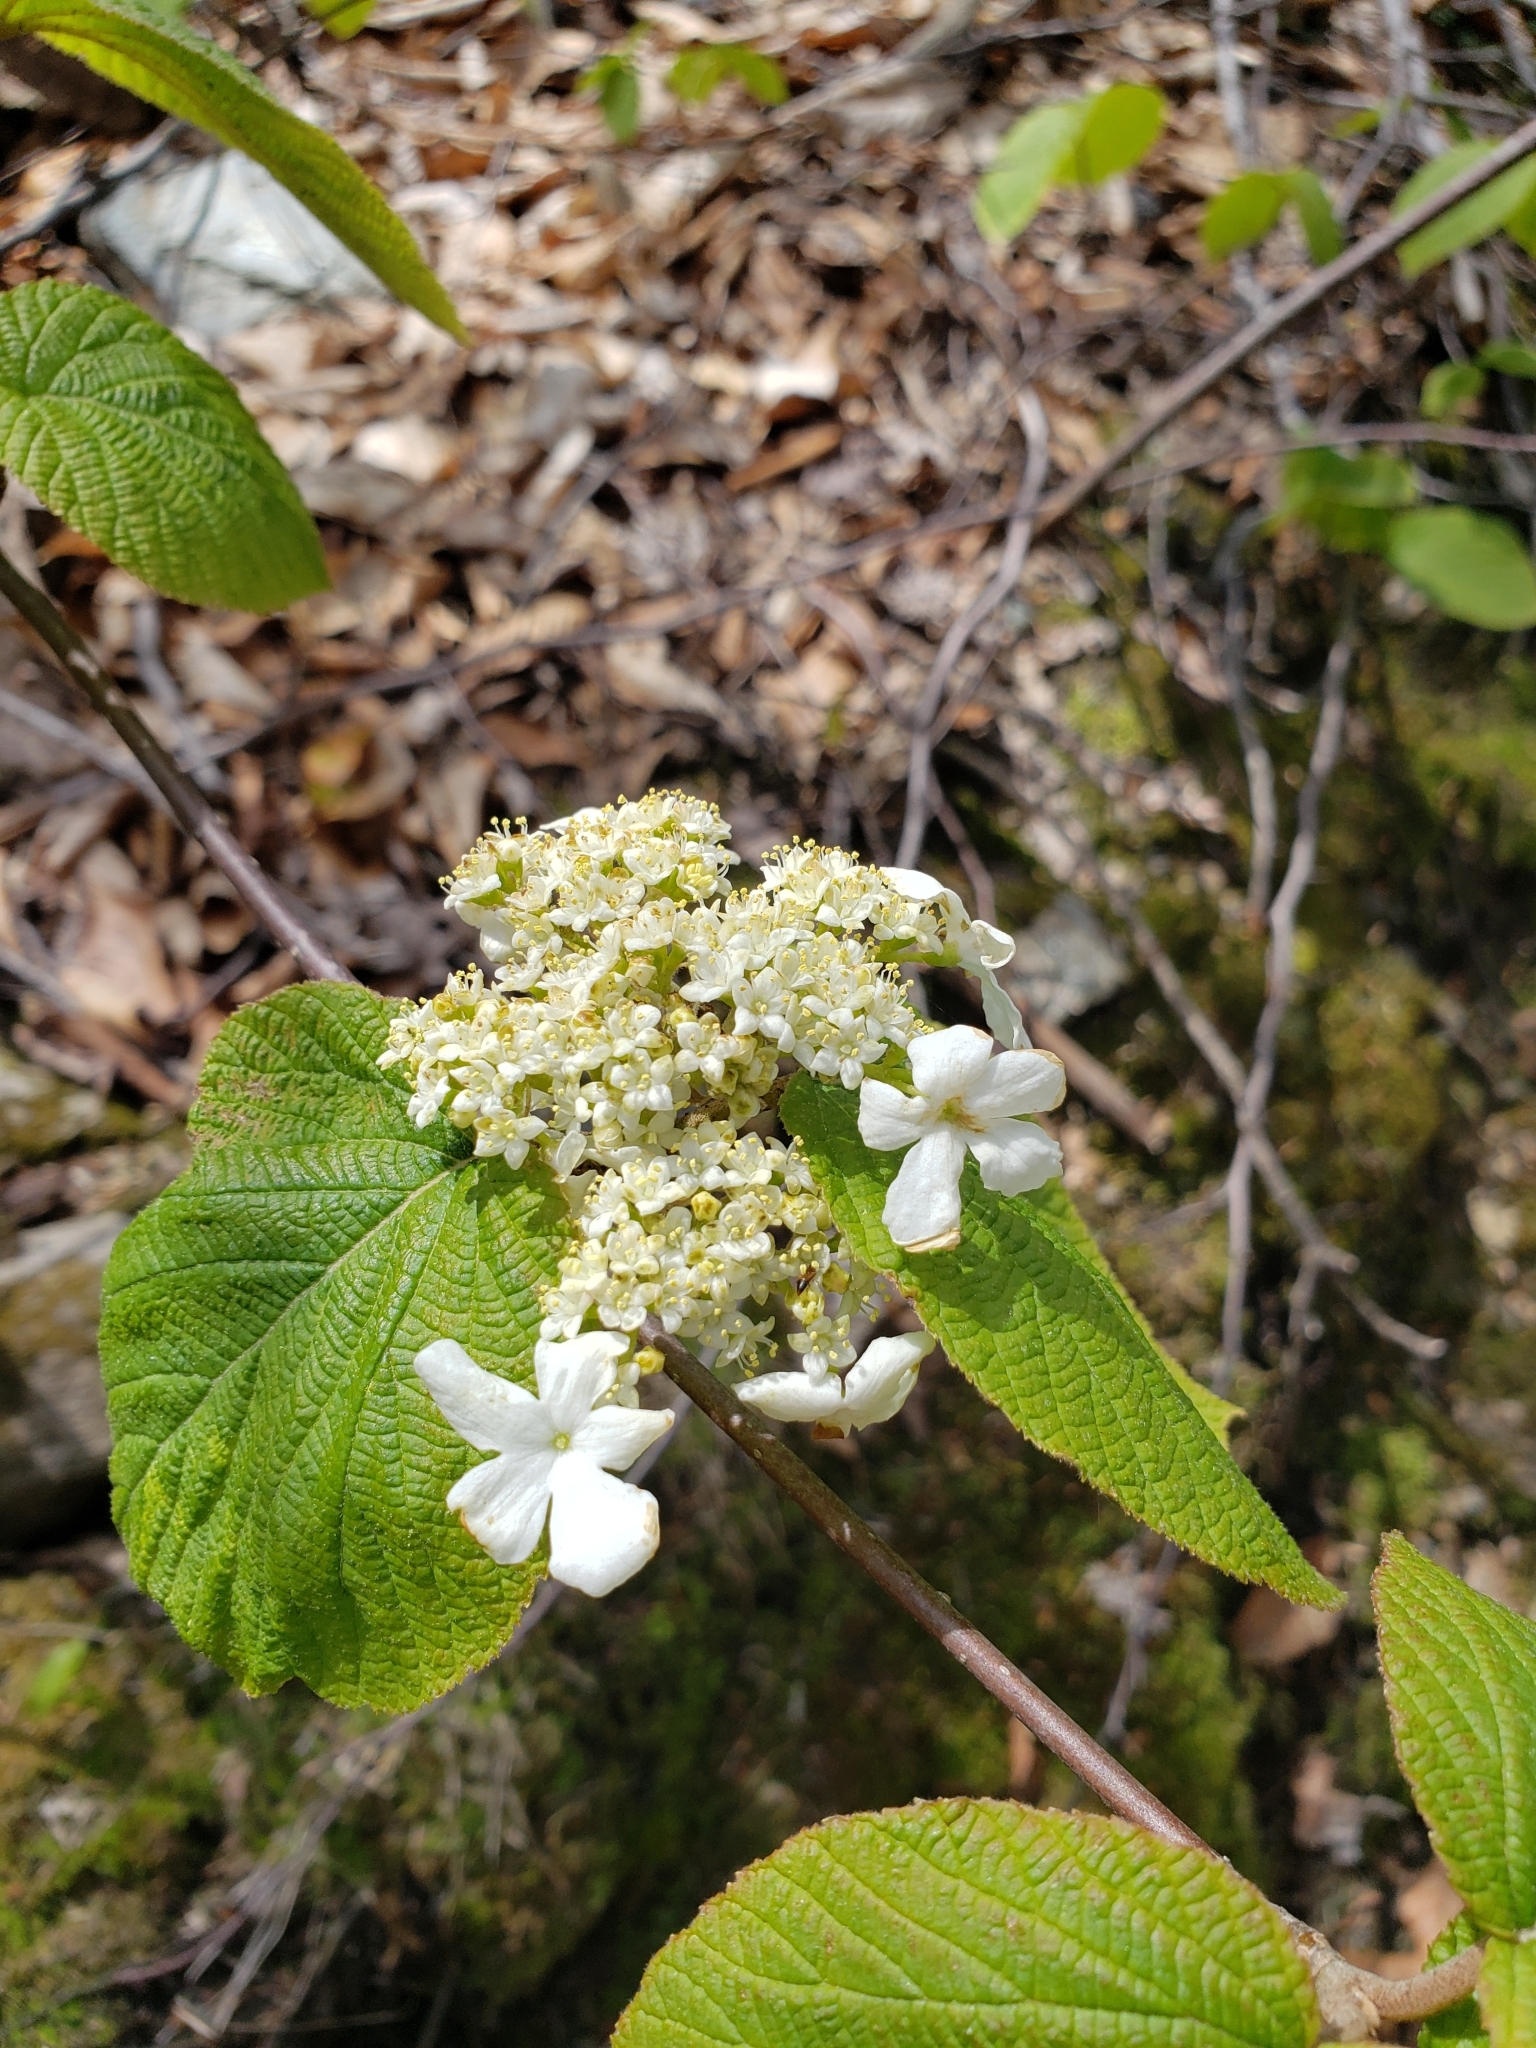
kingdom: Plantae
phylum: Tracheophyta
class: Magnoliopsida
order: Dipsacales
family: Viburnaceae
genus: Viburnum
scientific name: Viburnum lantanoides
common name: Hobblebush
